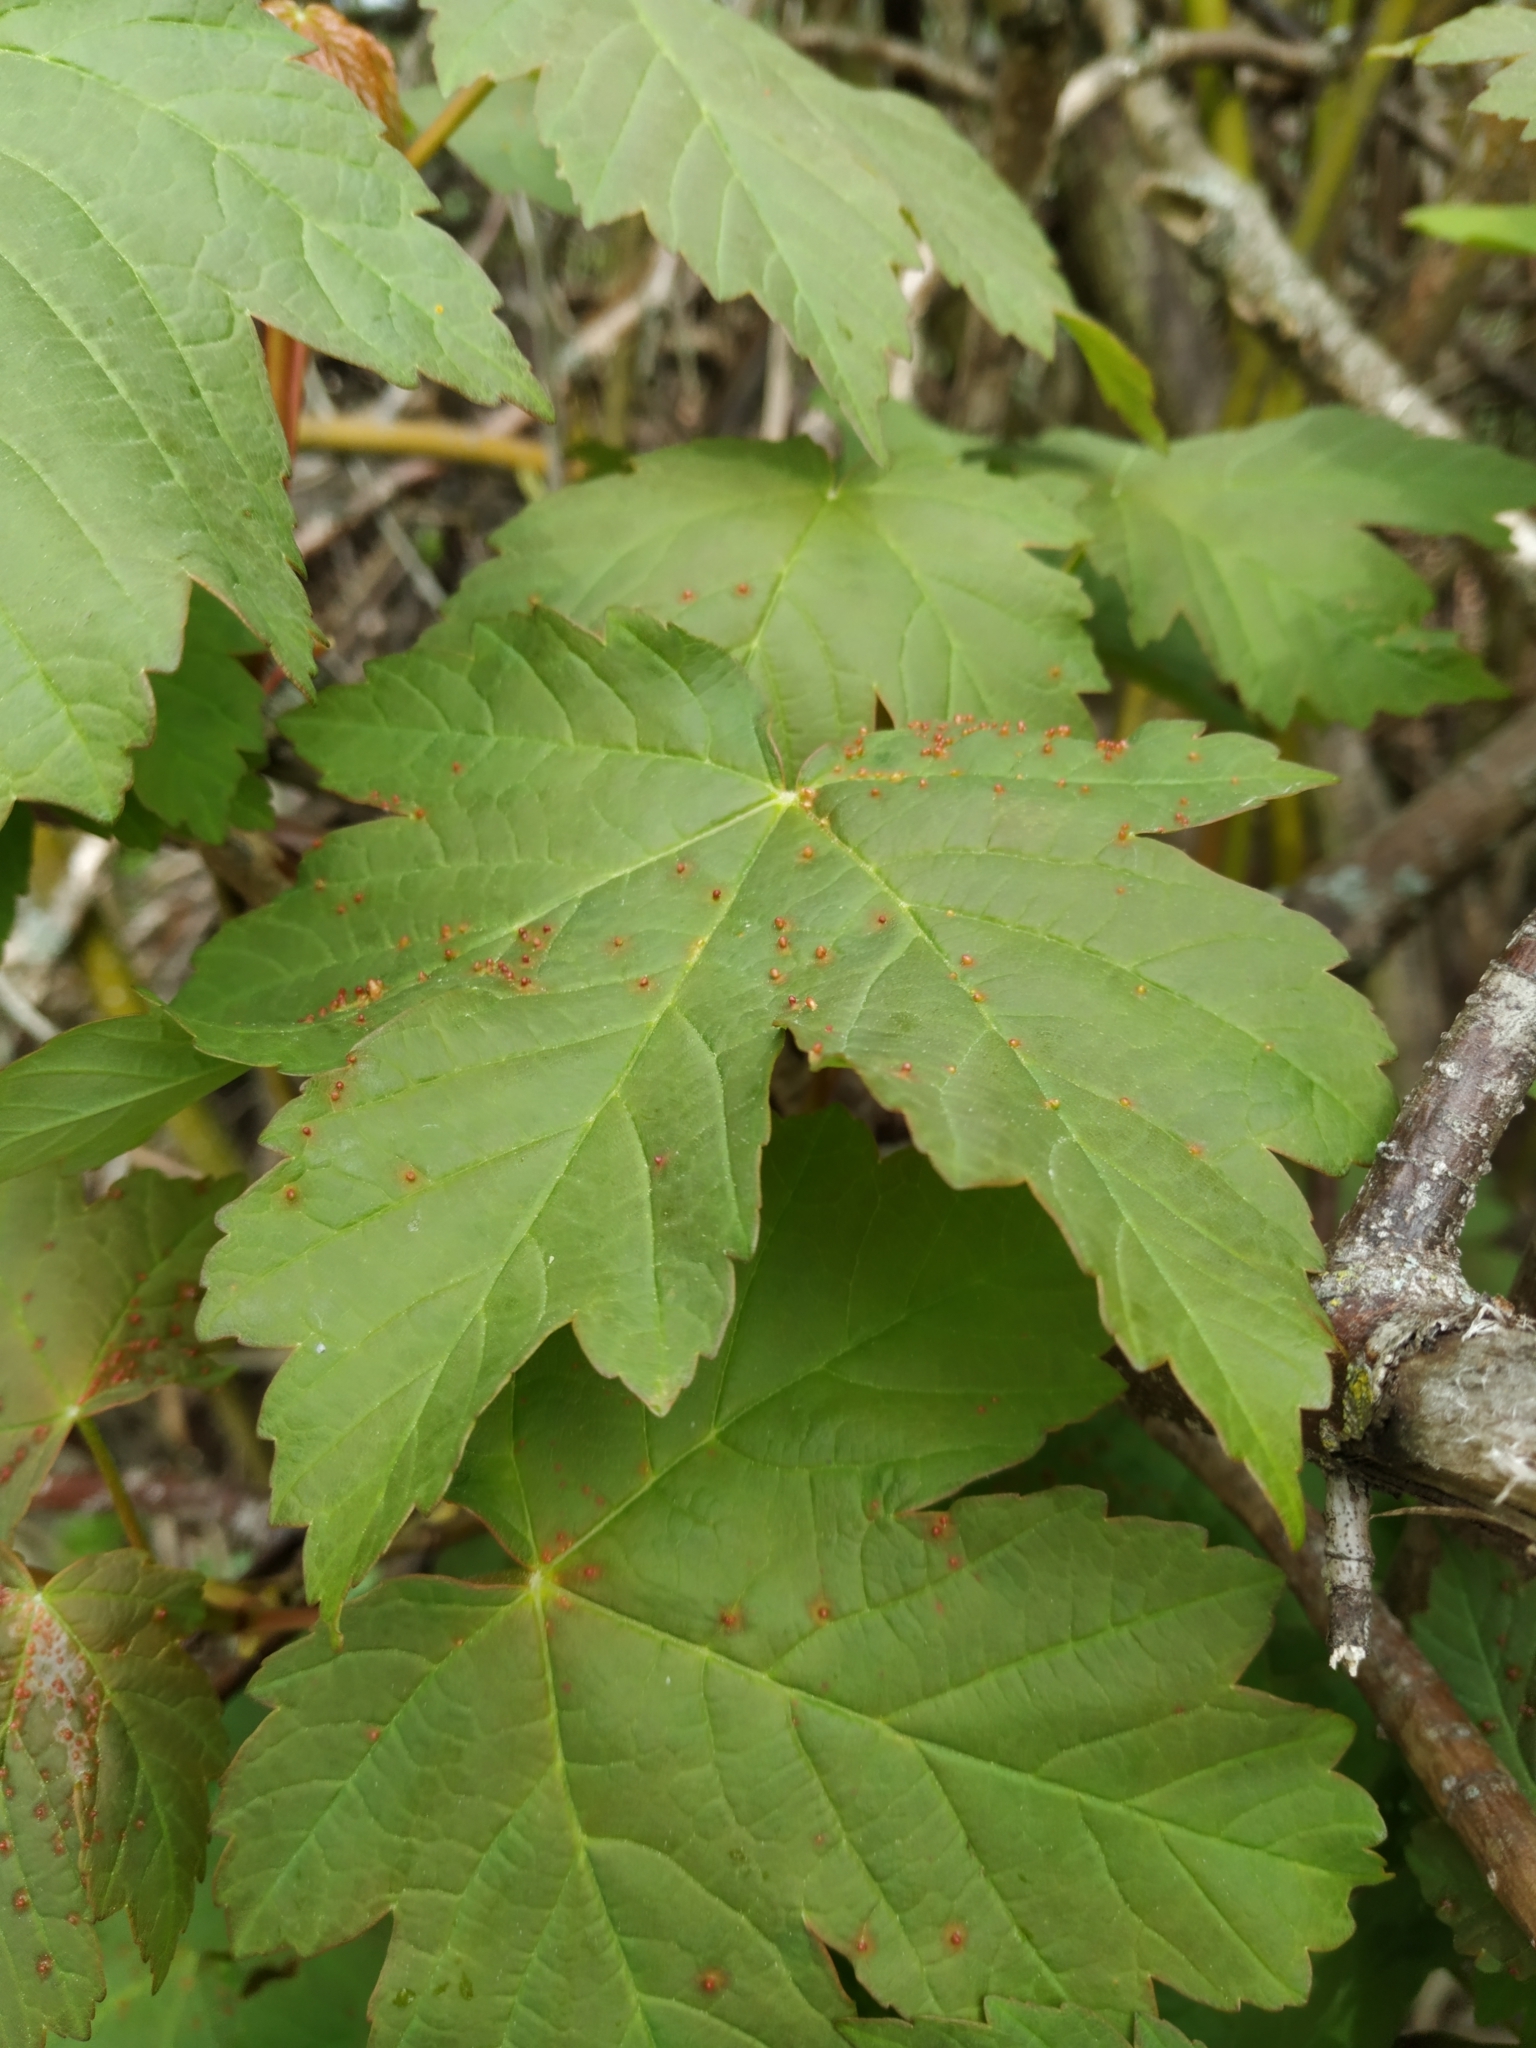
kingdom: Plantae
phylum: Tracheophyta
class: Magnoliopsida
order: Sapindales
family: Sapindaceae
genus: Acer
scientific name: Acer pseudoplatanus
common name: Sycamore
